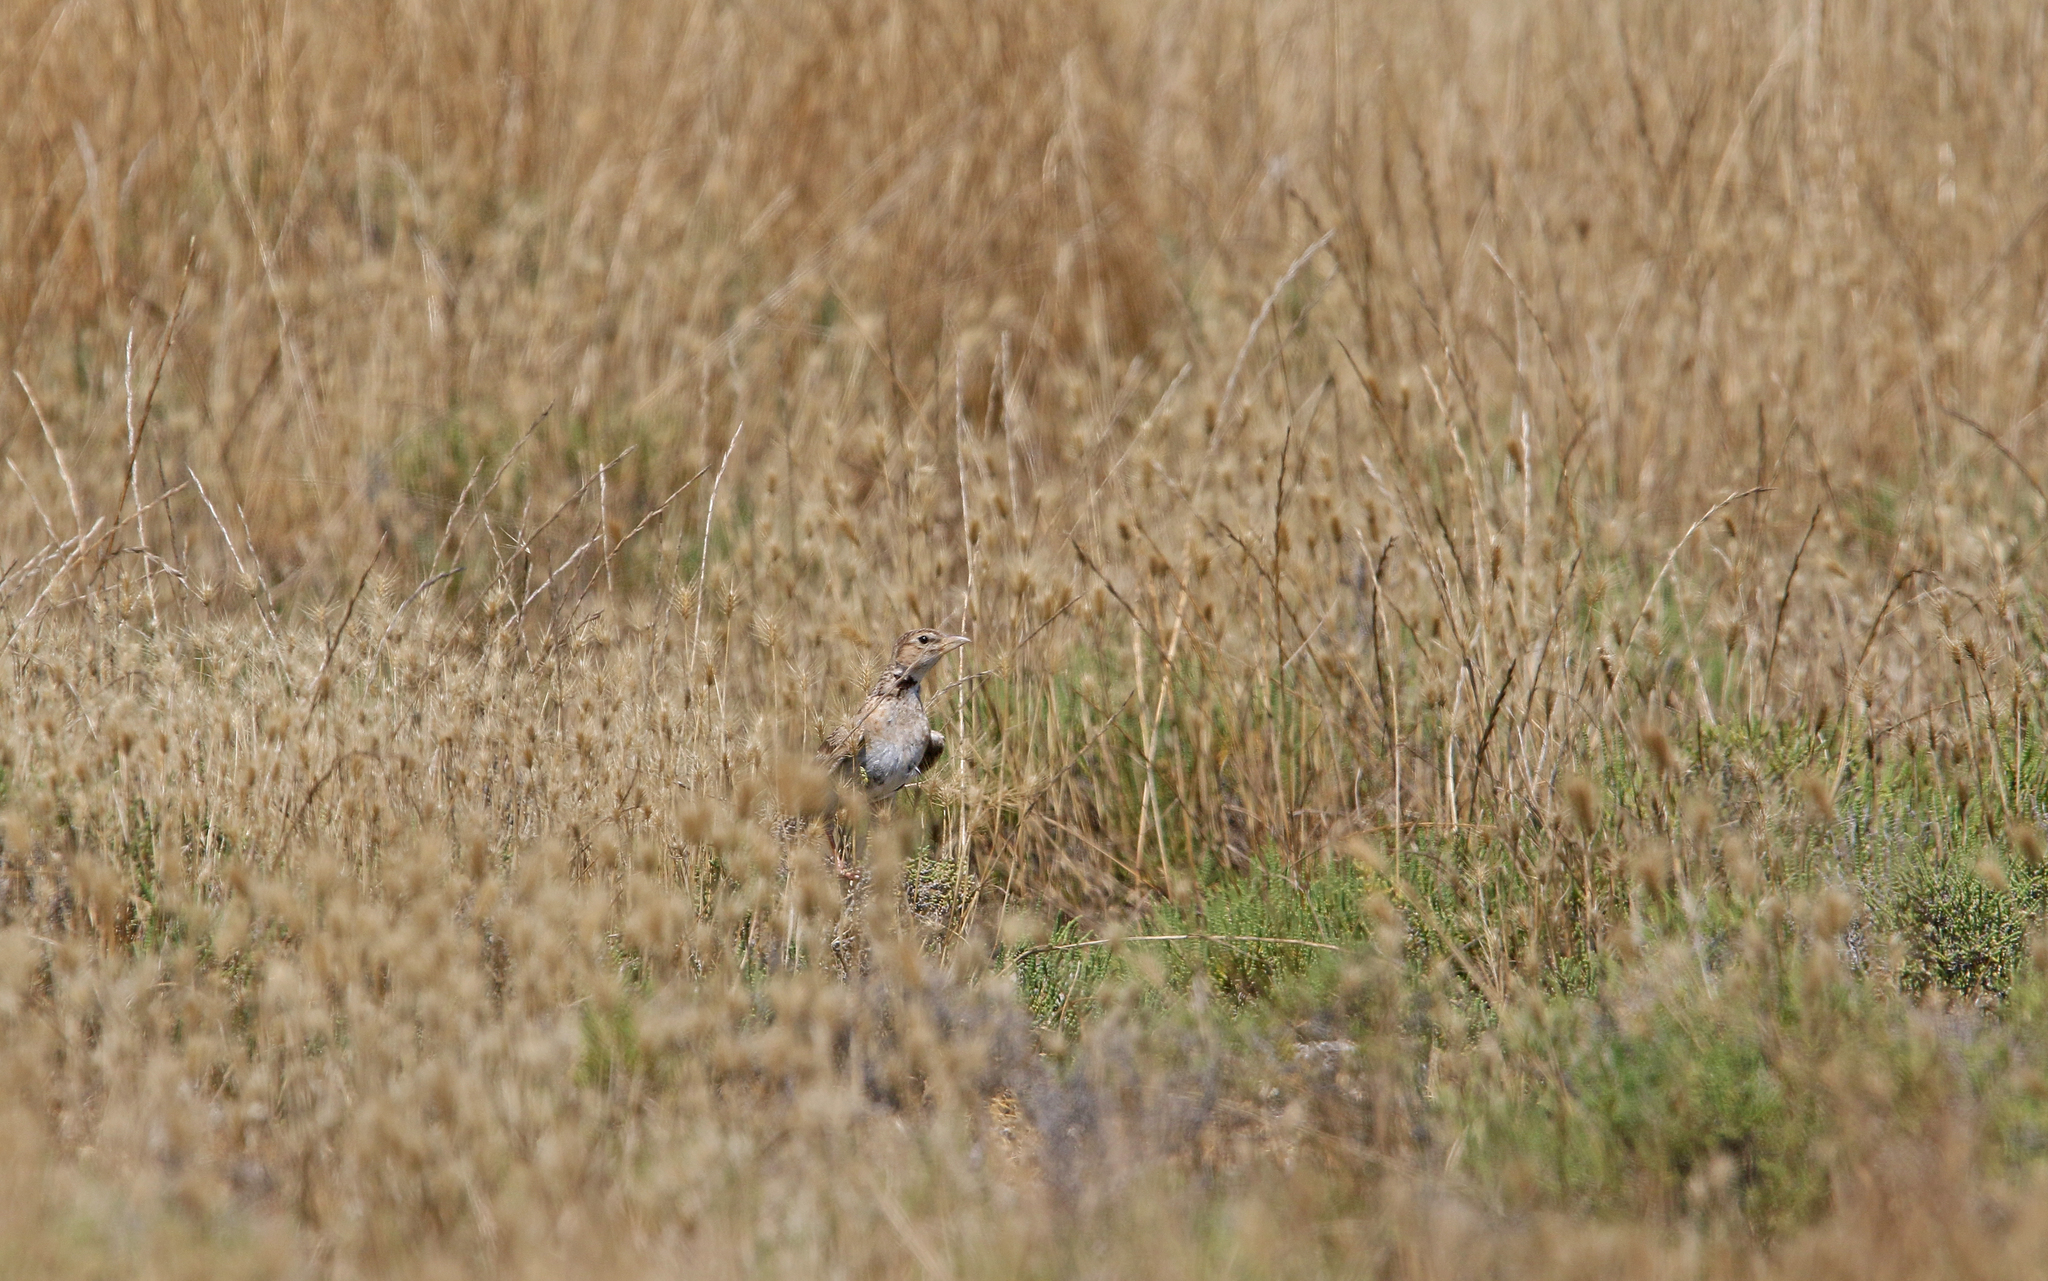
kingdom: Animalia
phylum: Chordata
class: Aves
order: Passeriformes
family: Alaudidae
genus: Melanocorypha
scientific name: Melanocorypha calandra
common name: Calandra lark
